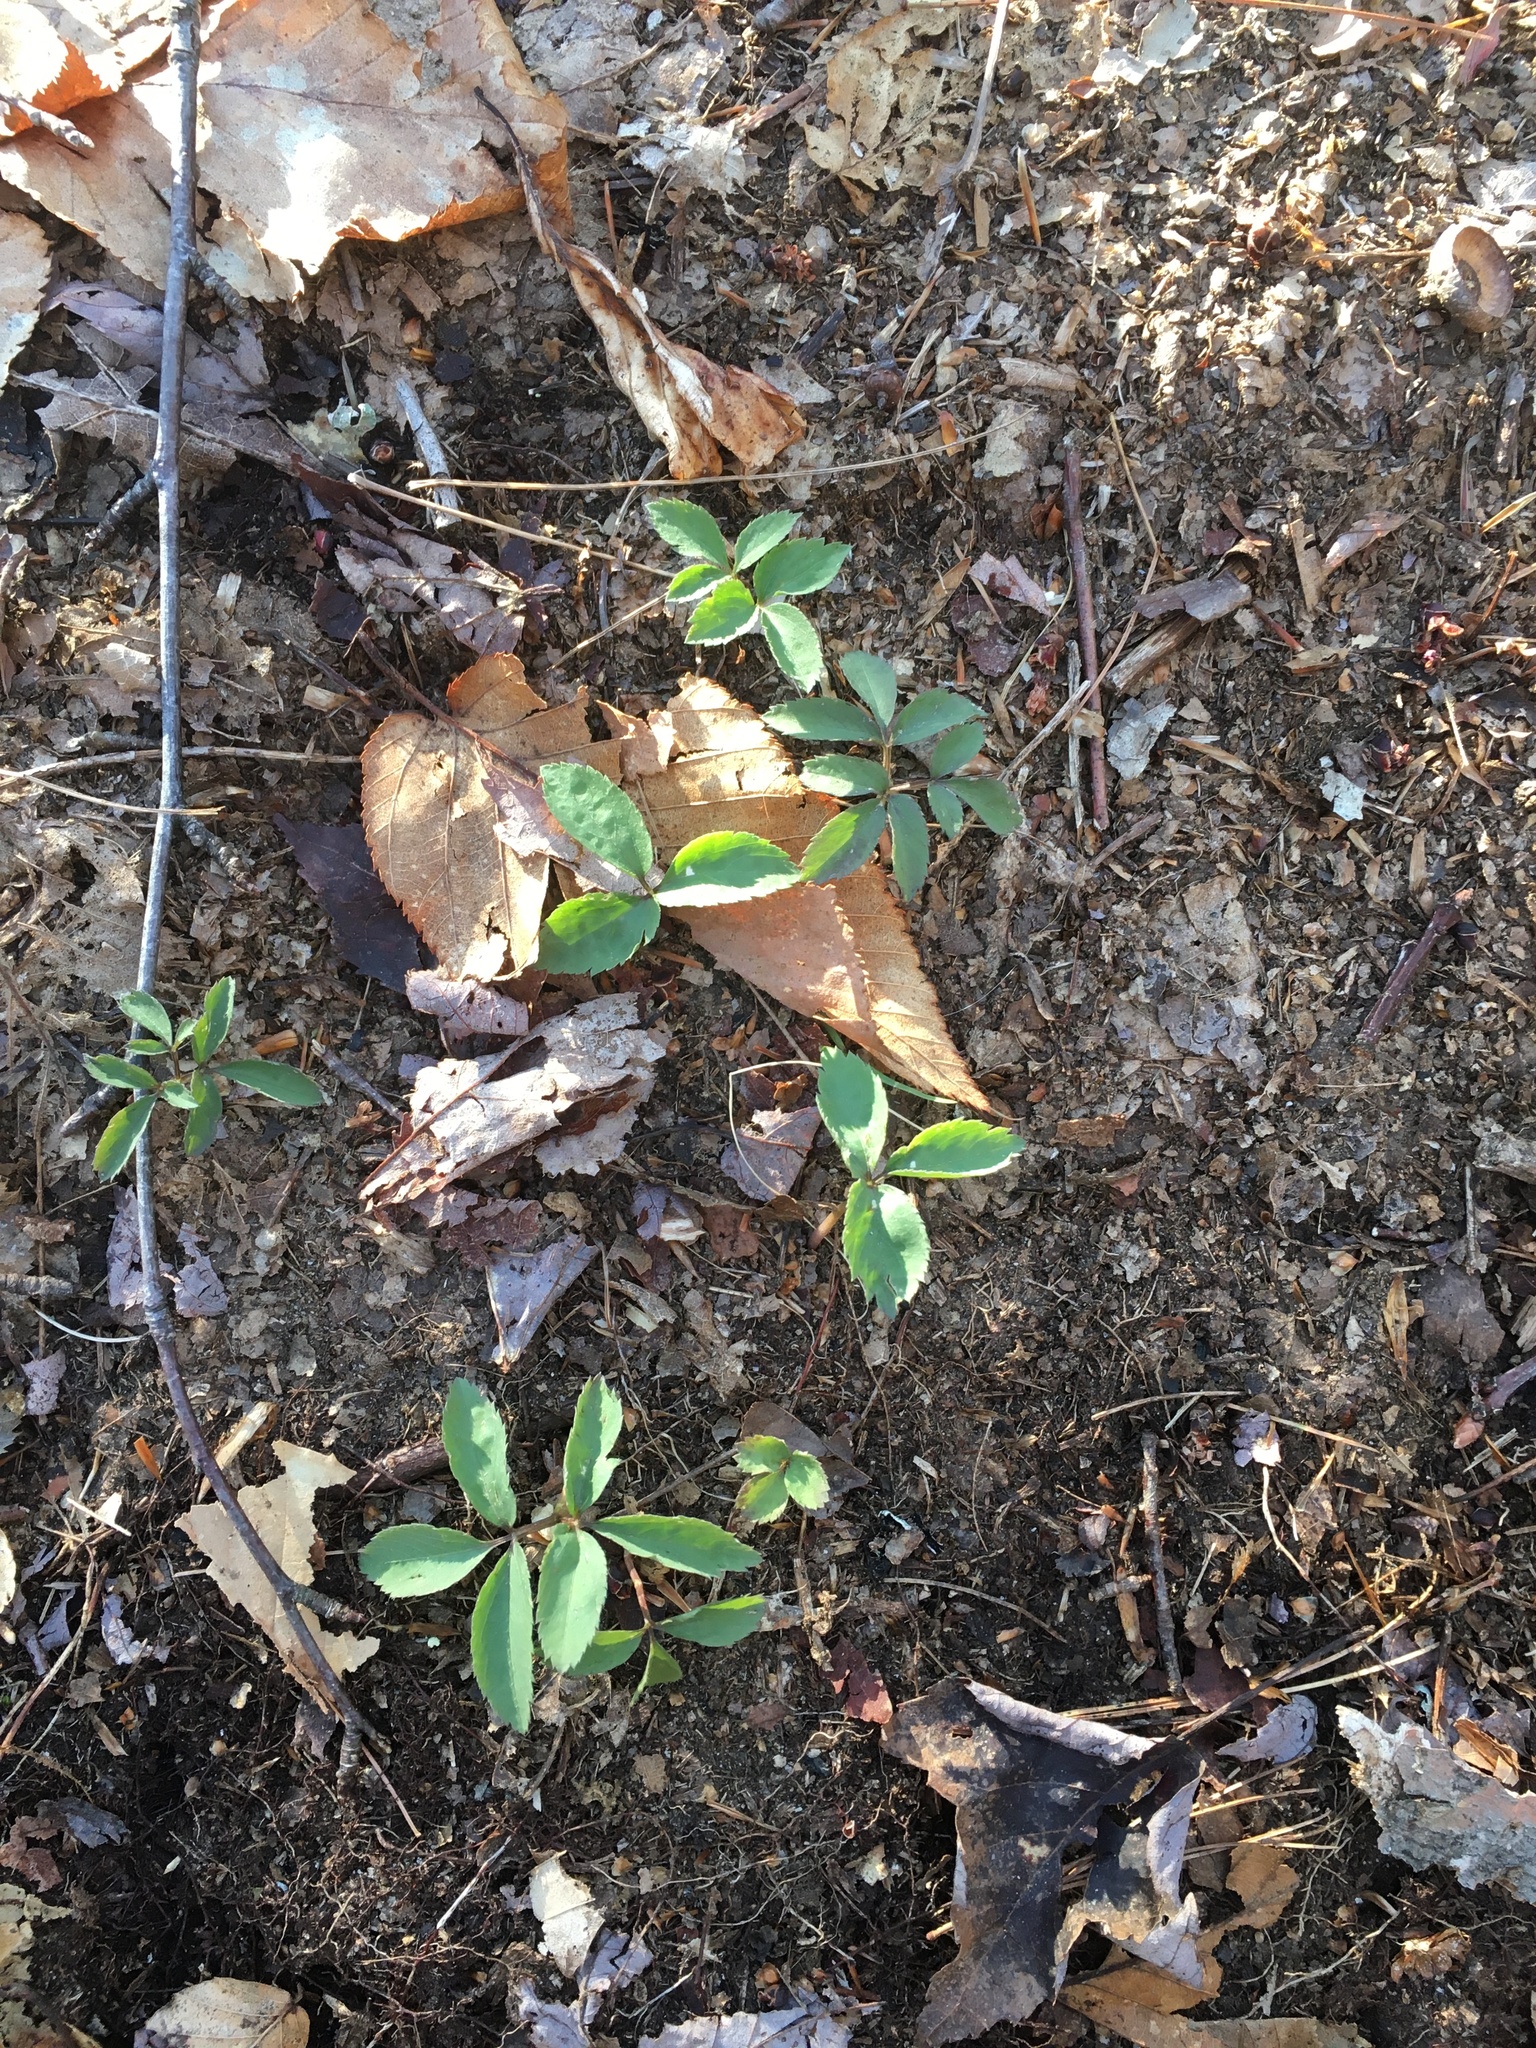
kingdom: Plantae
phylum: Tracheophyta
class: Magnoliopsida
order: Apiales
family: Araliaceae
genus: Panax
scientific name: Panax trifolius
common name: Dwarf ginseng
